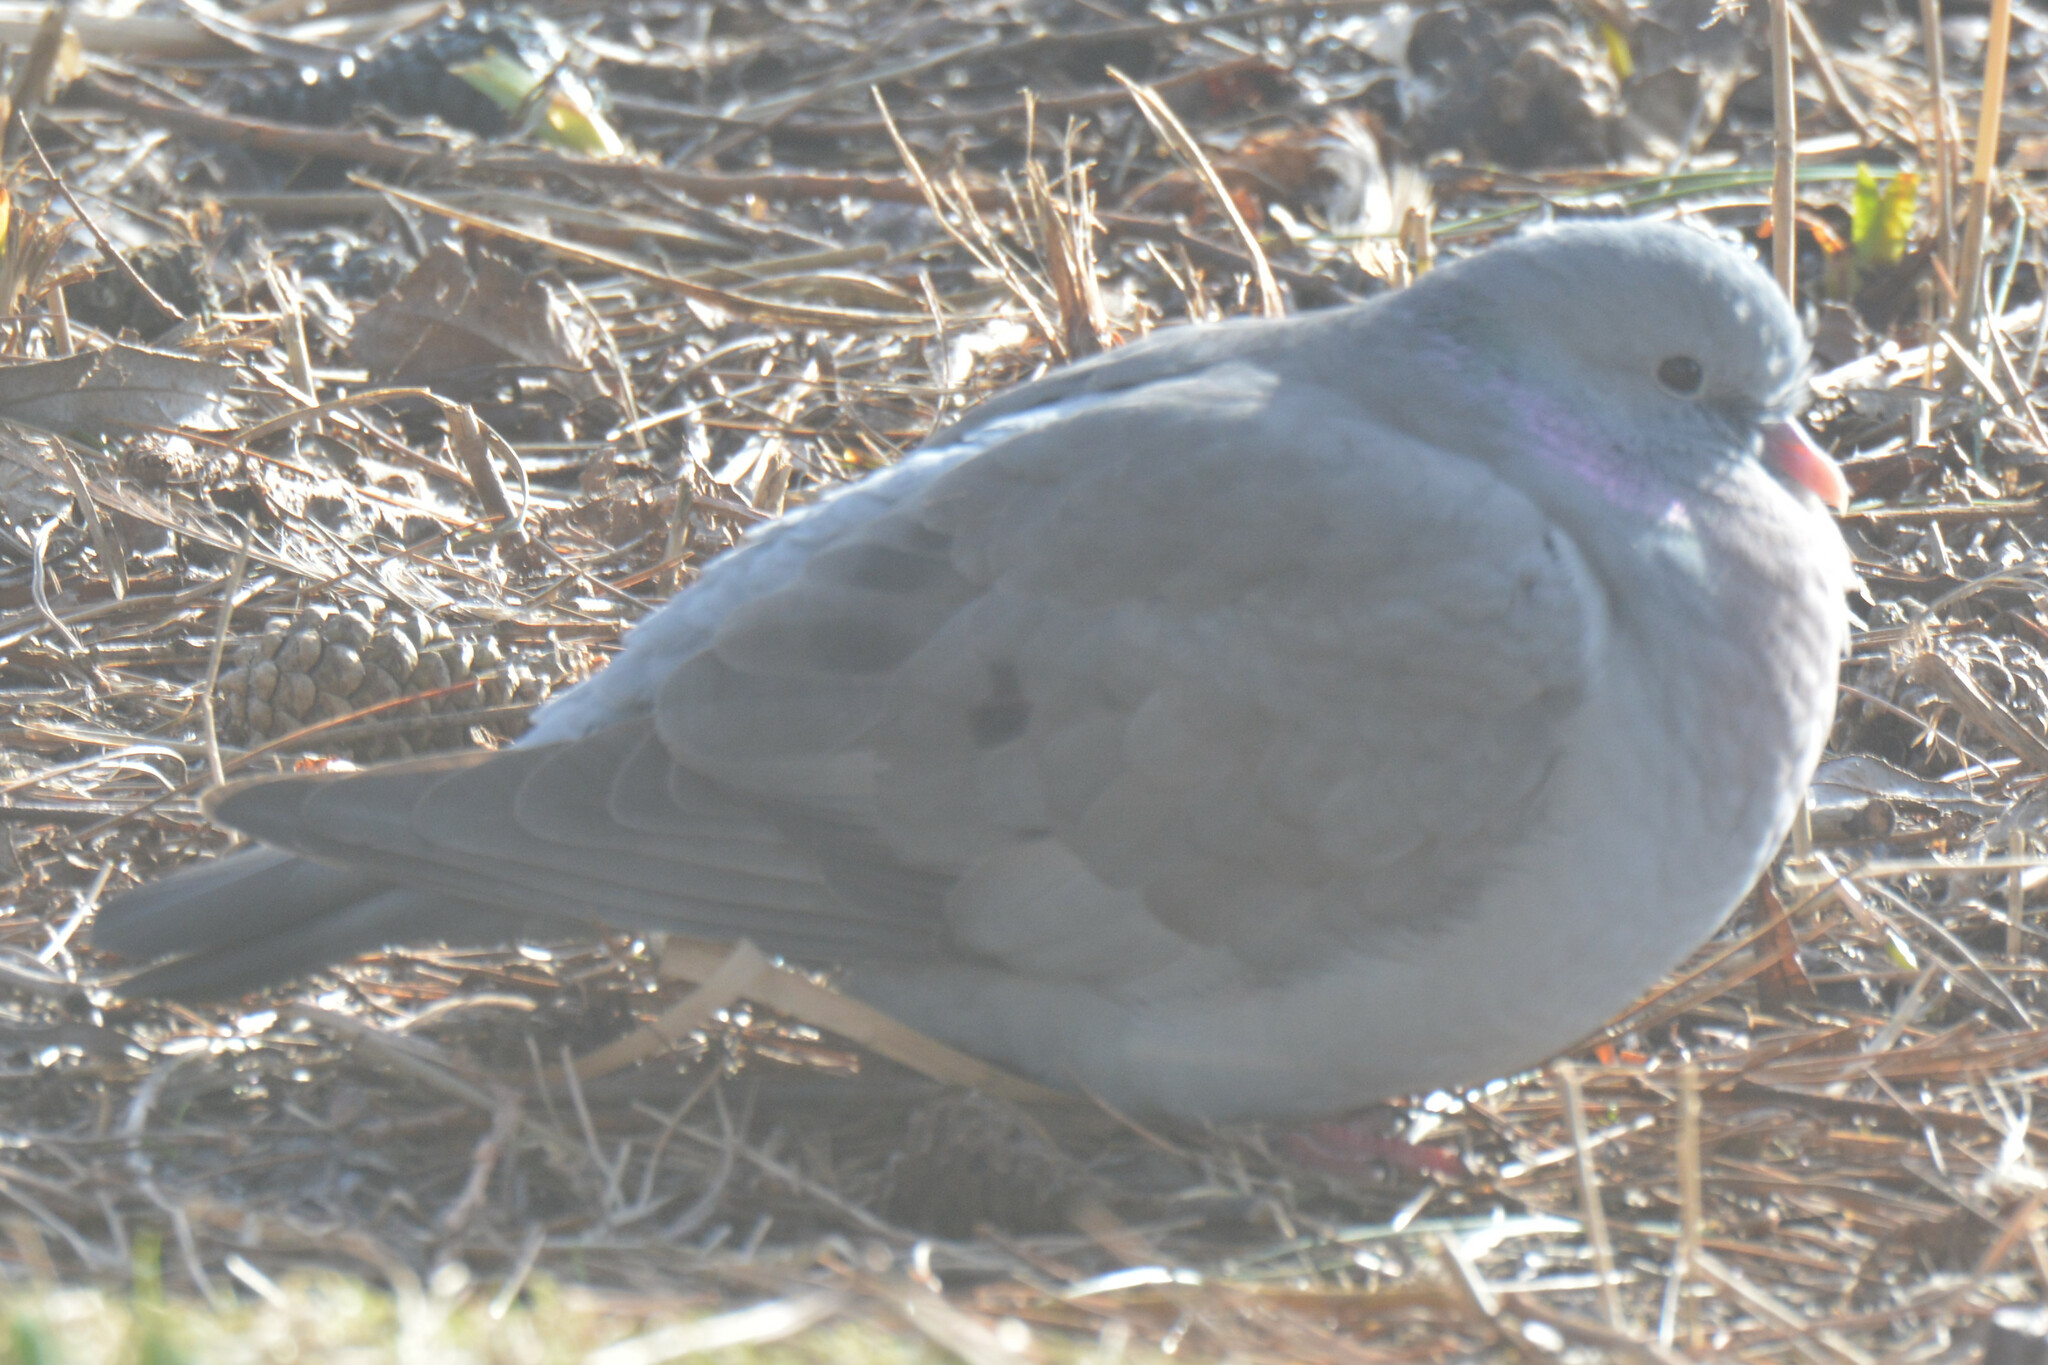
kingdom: Animalia
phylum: Chordata
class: Aves
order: Columbiformes
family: Columbidae
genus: Columba
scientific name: Columba oenas
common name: Stock dove
